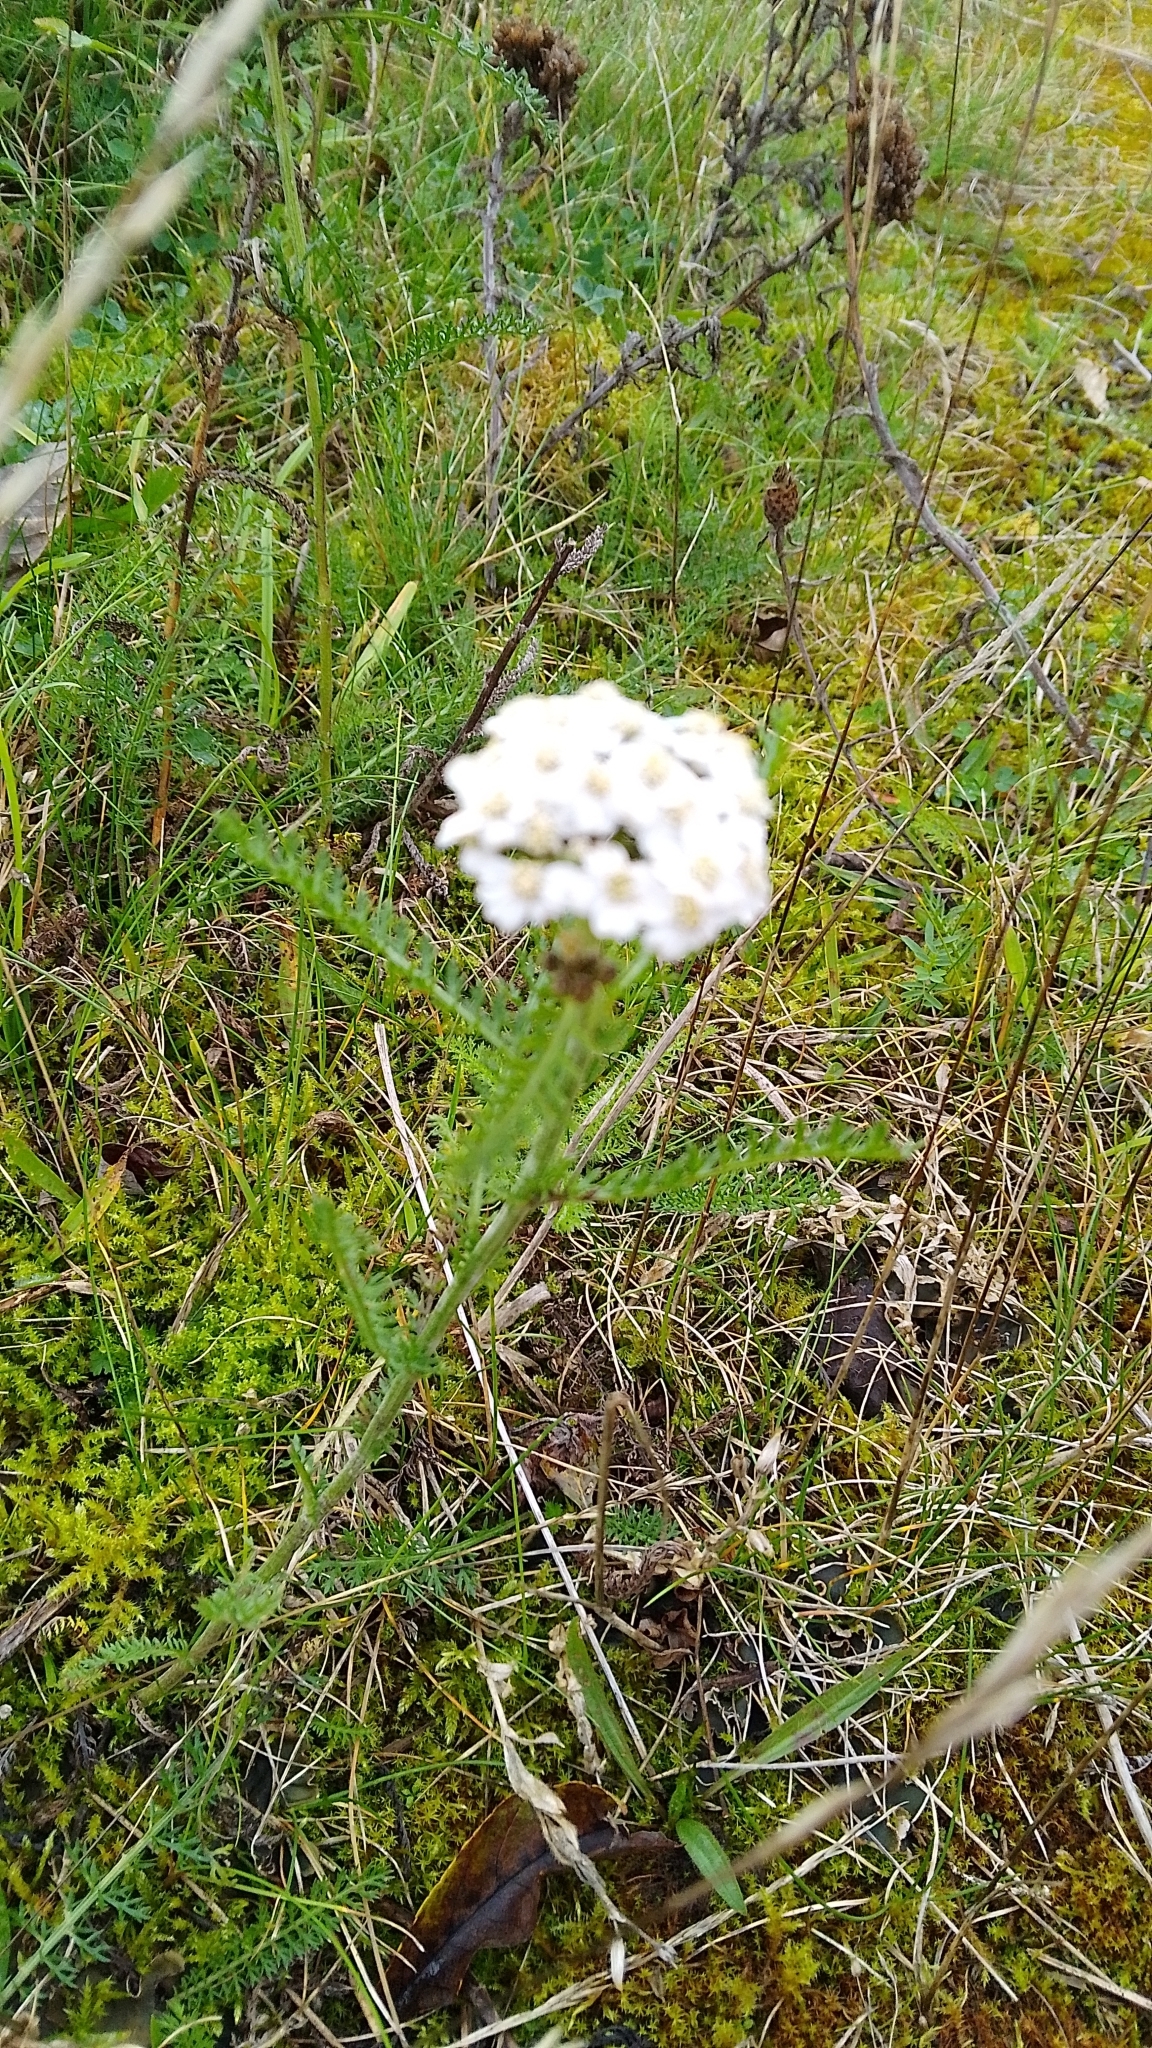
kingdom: Plantae
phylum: Tracheophyta
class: Magnoliopsida
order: Asterales
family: Asteraceae
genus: Achillea
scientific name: Achillea millefolium
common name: Yarrow
